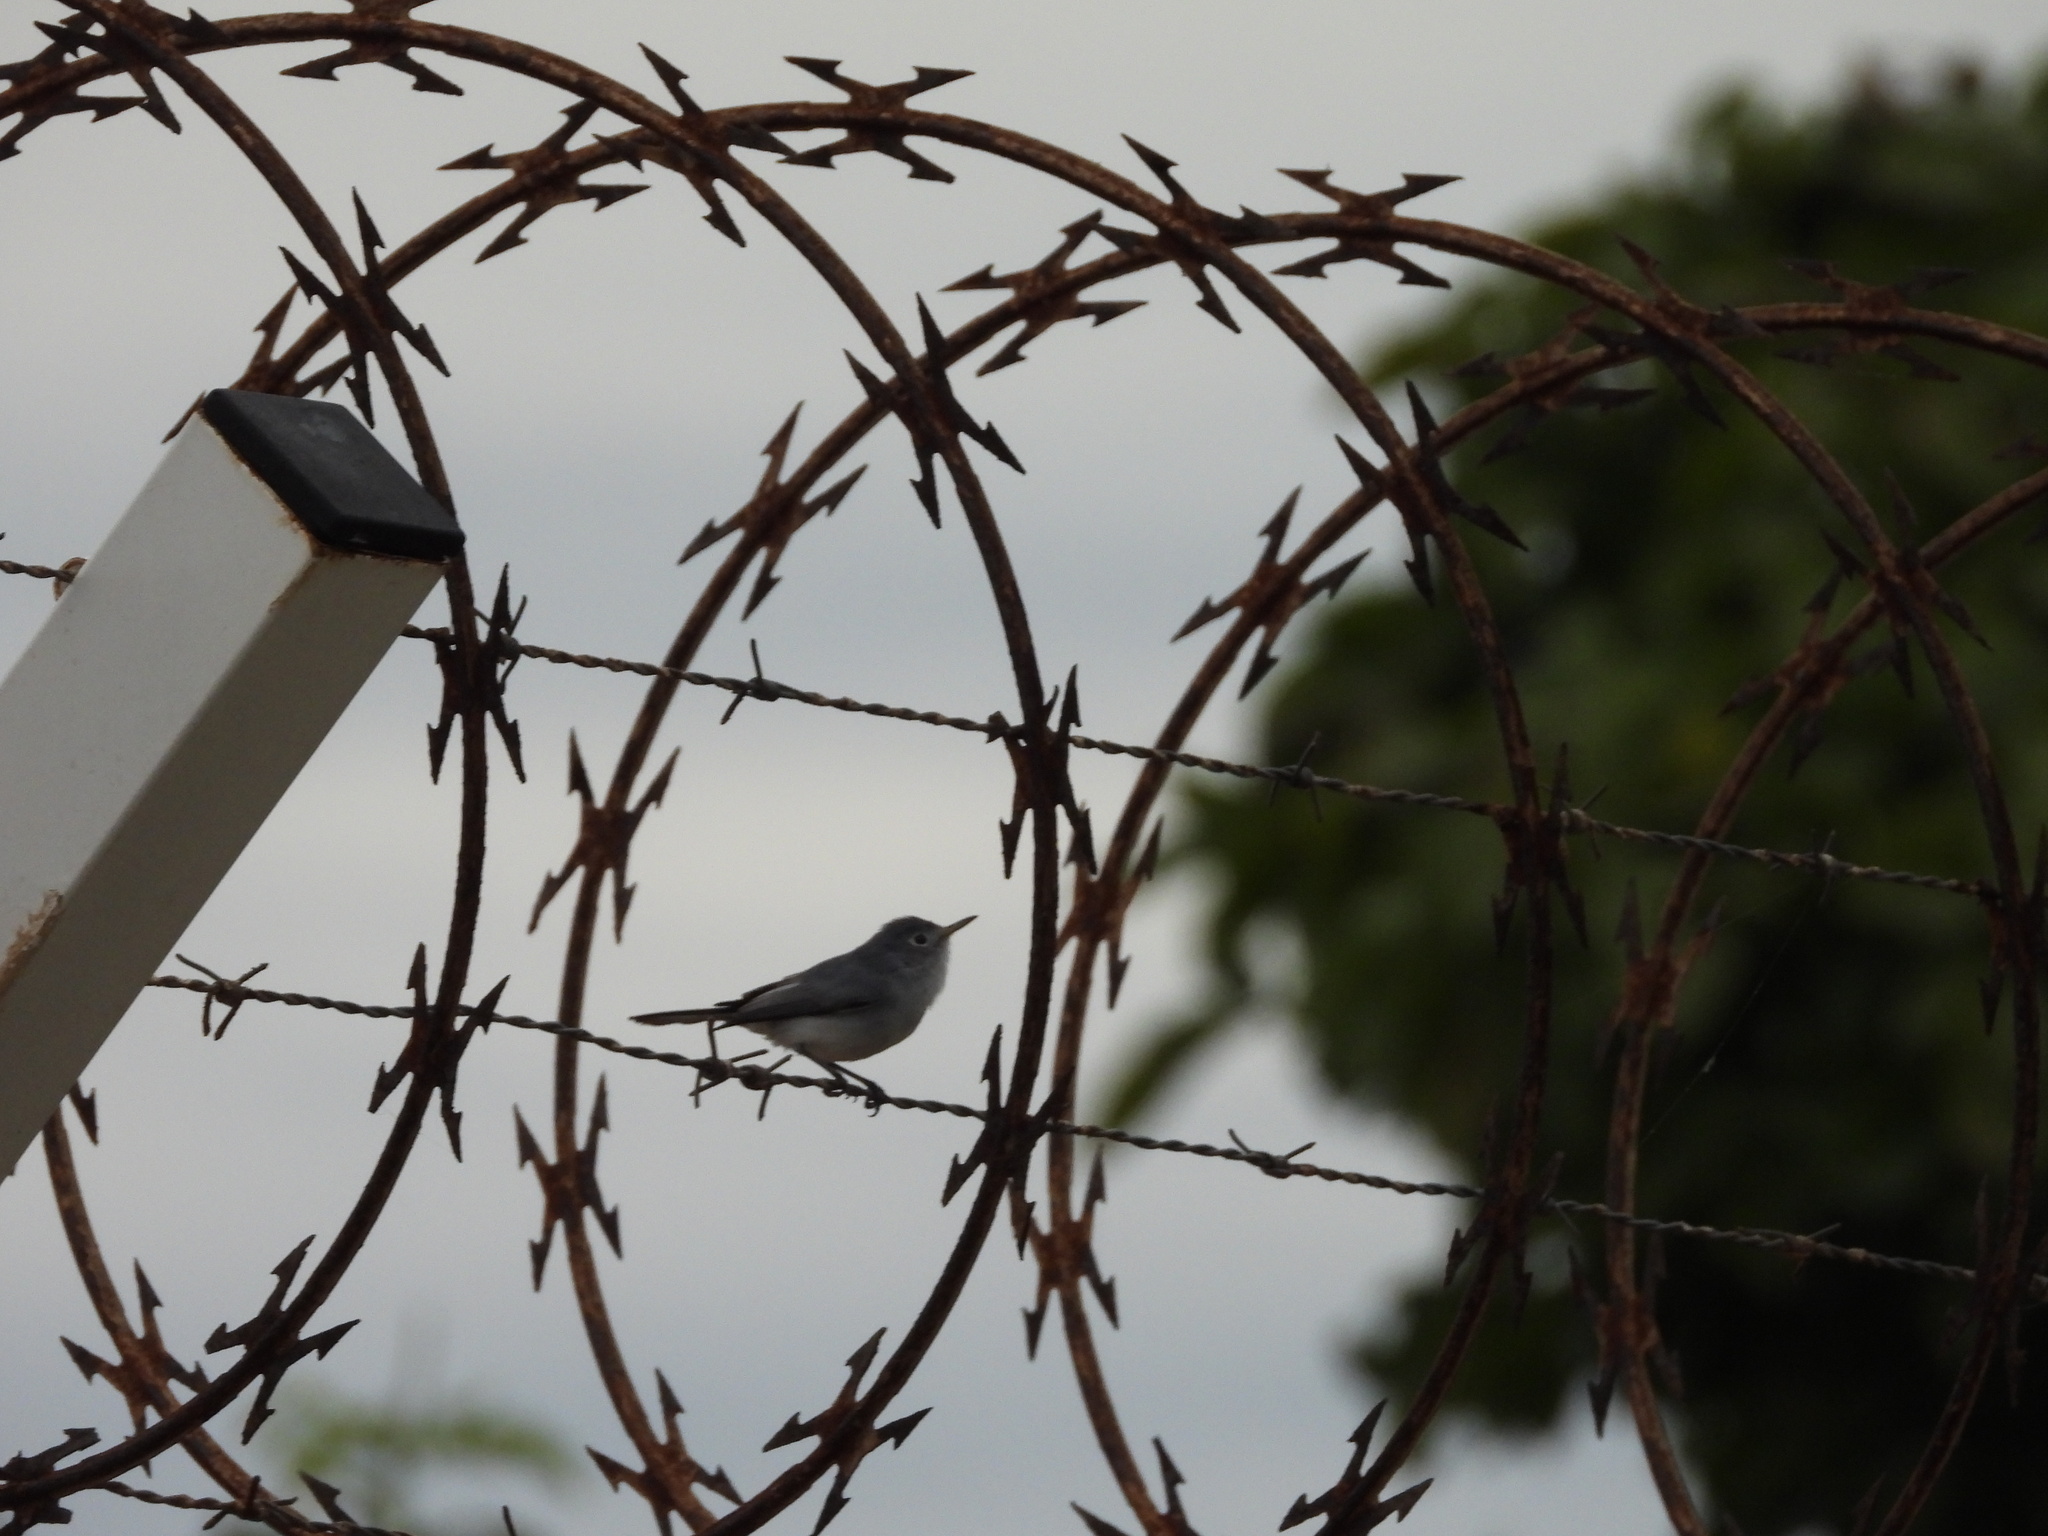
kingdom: Animalia
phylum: Chordata
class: Aves
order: Passeriformes
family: Polioptilidae
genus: Polioptila
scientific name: Polioptila caerulea
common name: Blue-gray gnatcatcher
